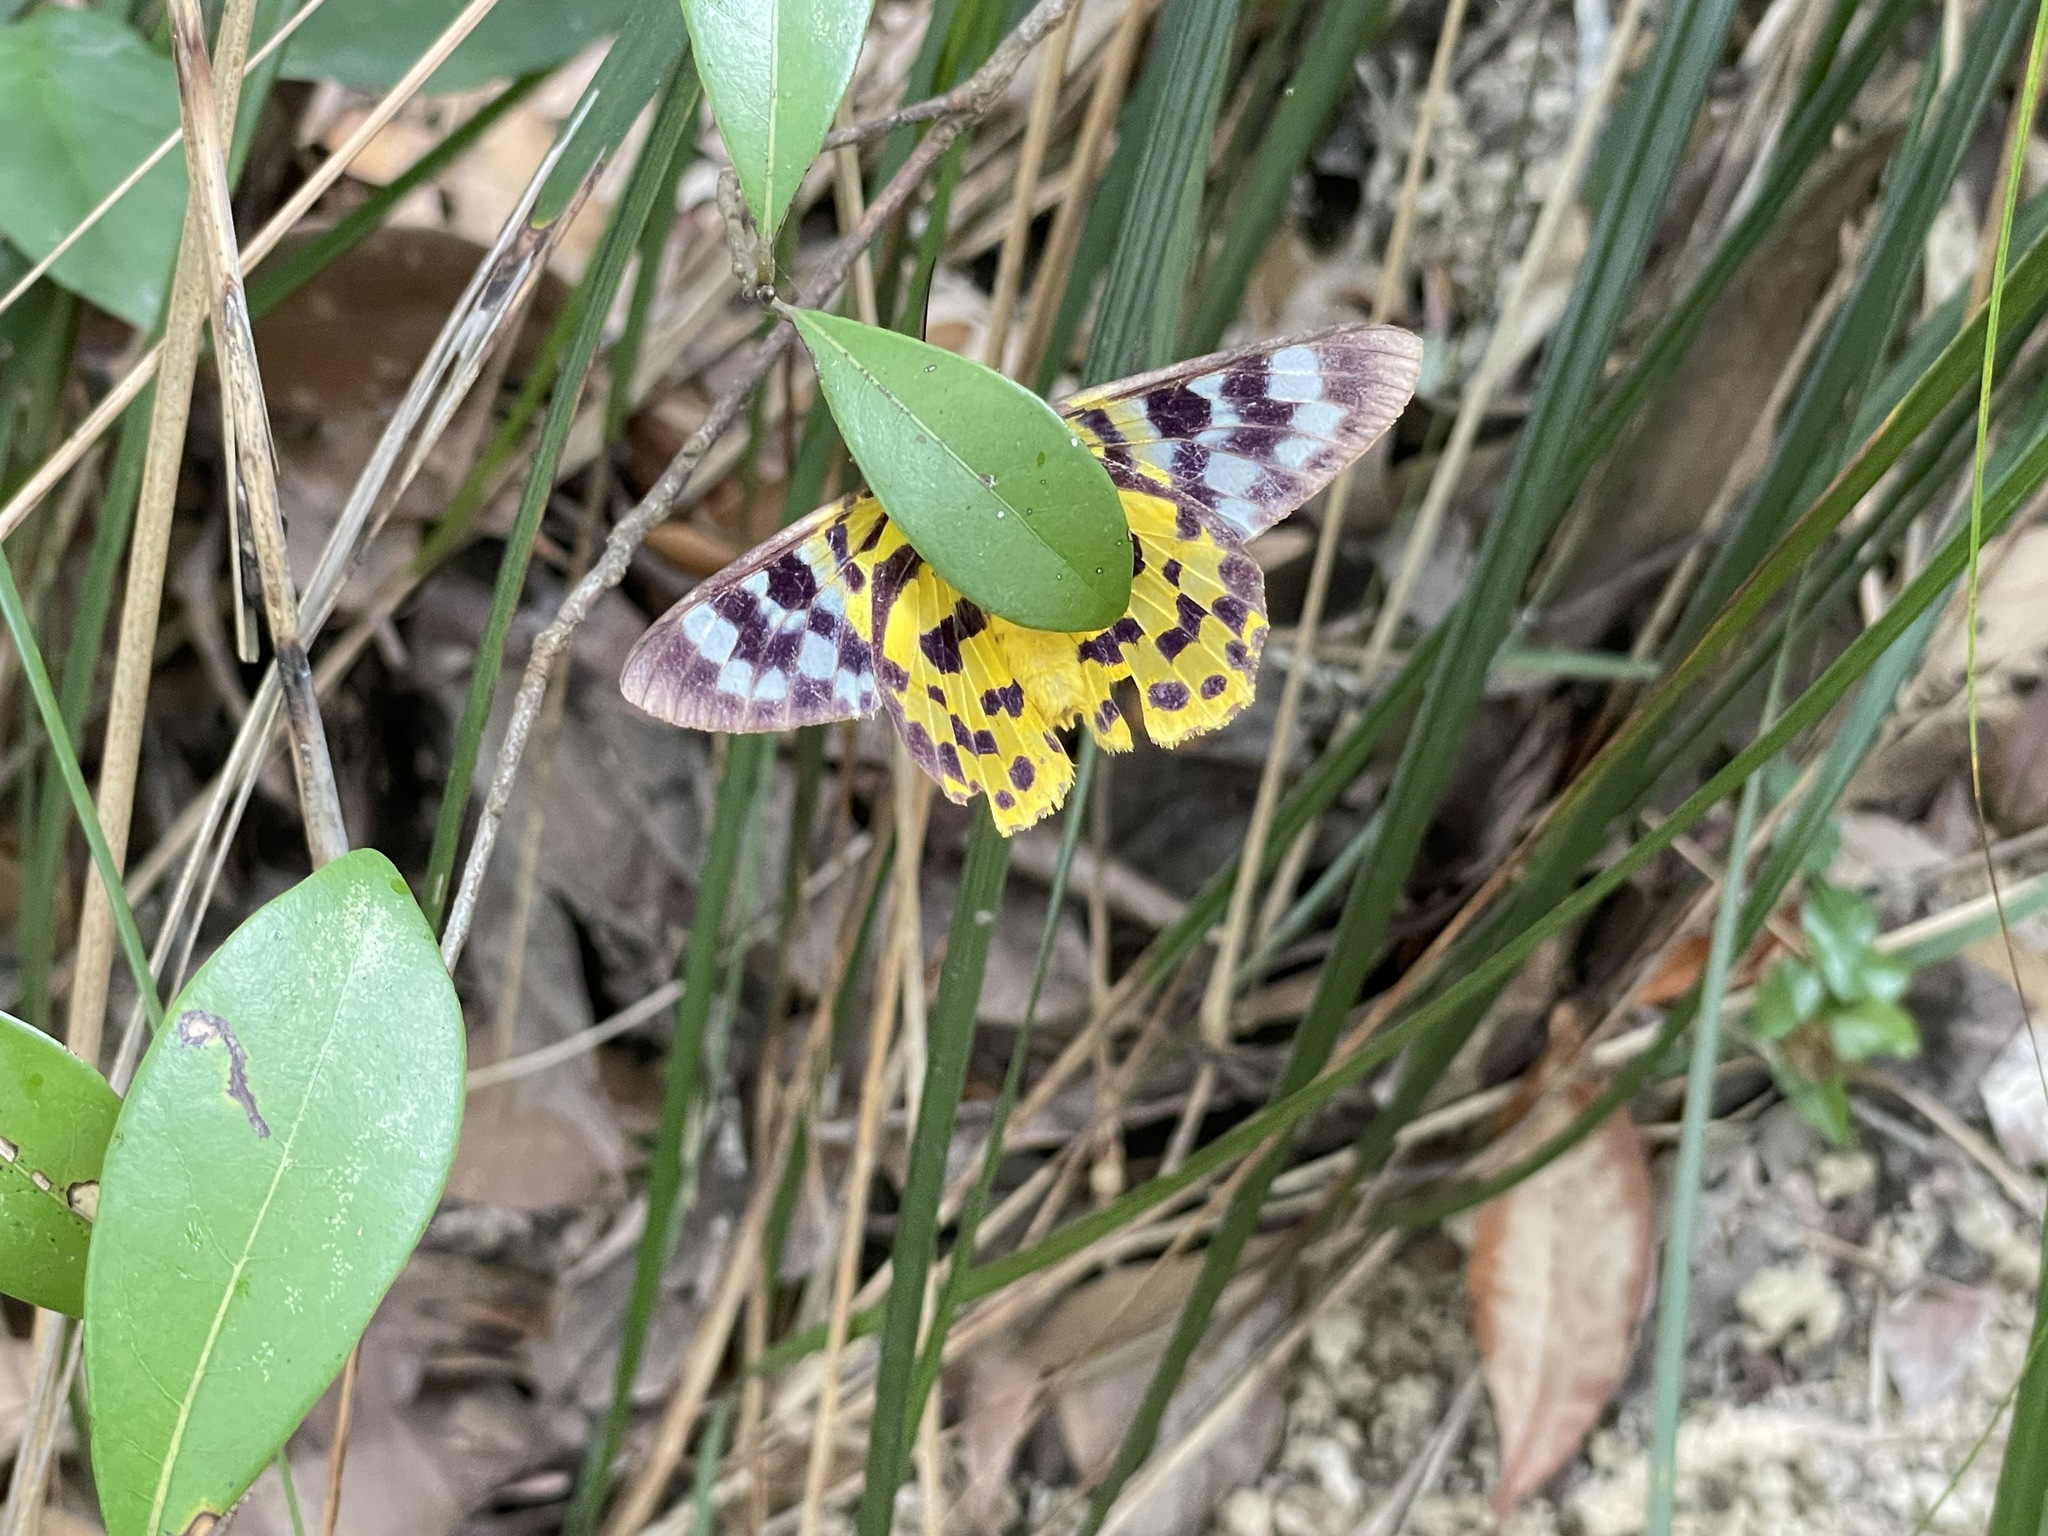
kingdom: Animalia
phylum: Arthropoda
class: Insecta
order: Lepidoptera
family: Geometridae
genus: Dysphania
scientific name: Dysphania militaris
